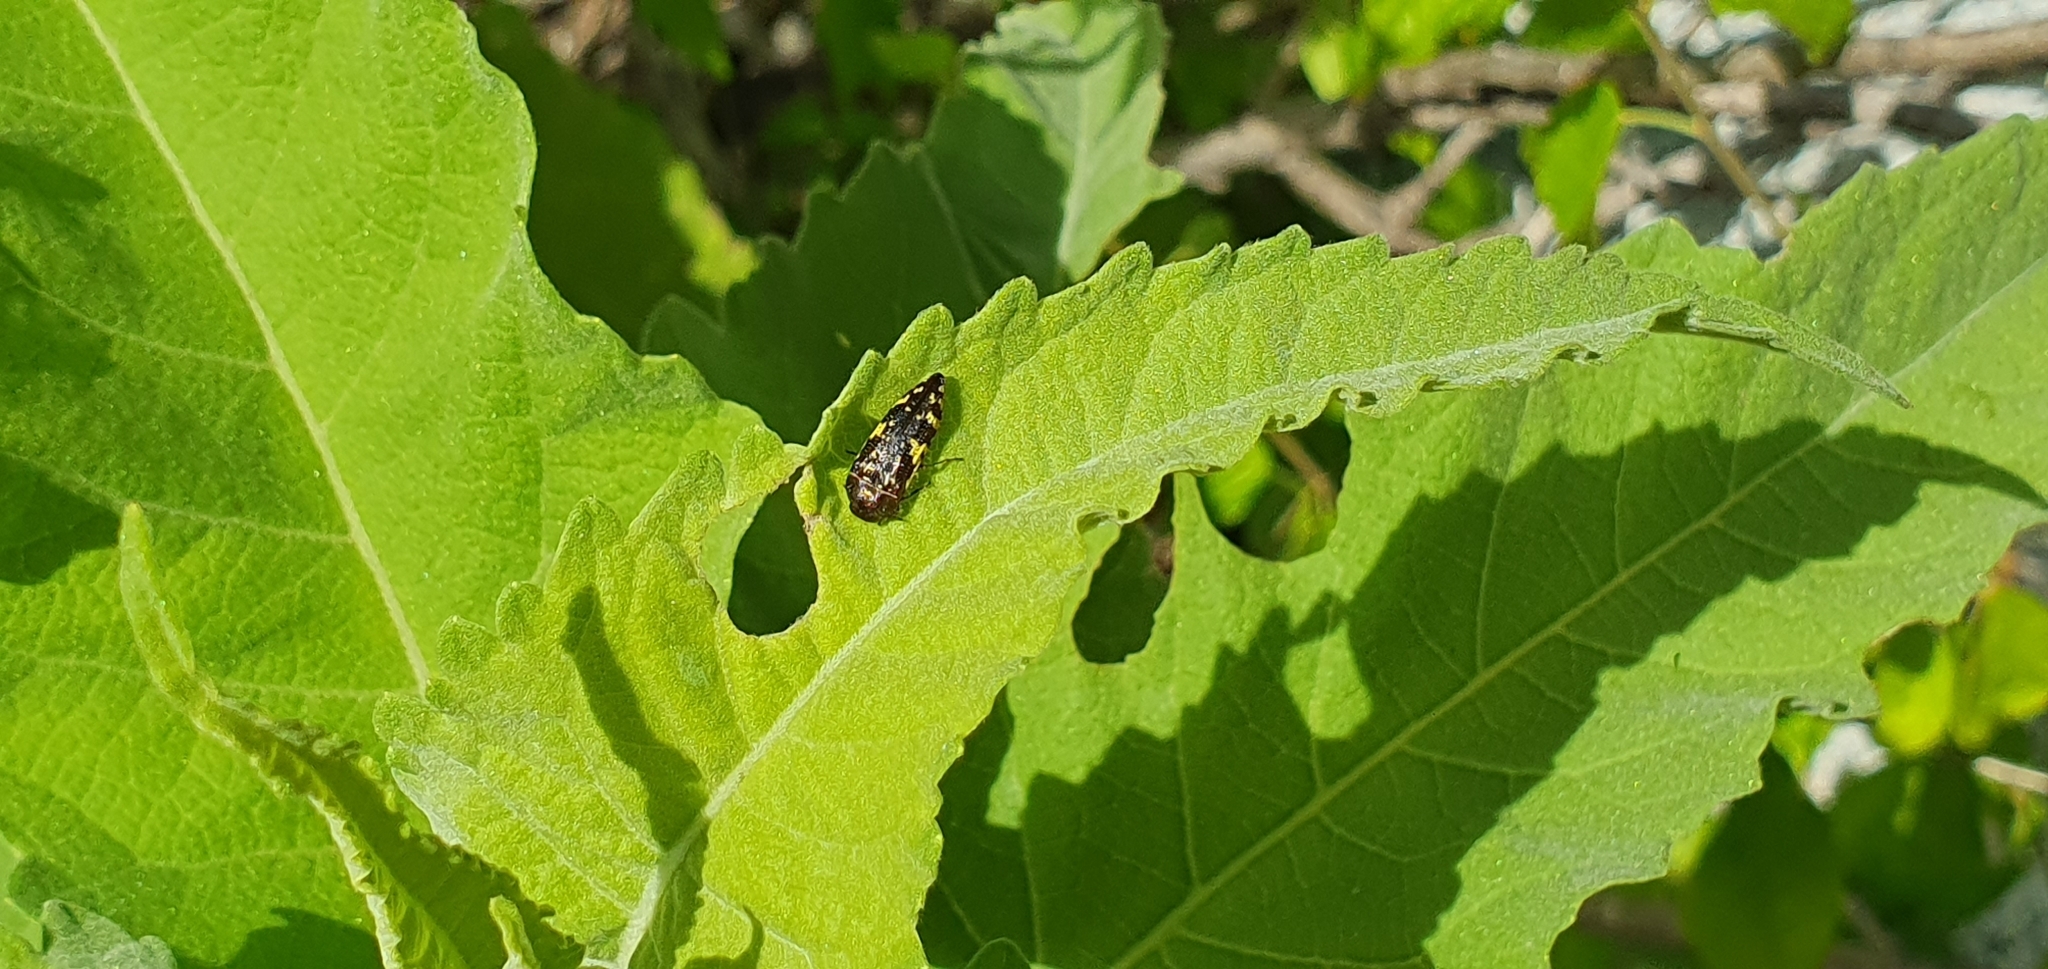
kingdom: Animalia
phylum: Arthropoda
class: Insecta
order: Coleoptera
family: Buprestidae
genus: Acmaeodera
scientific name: Acmaeodera flavosticta
